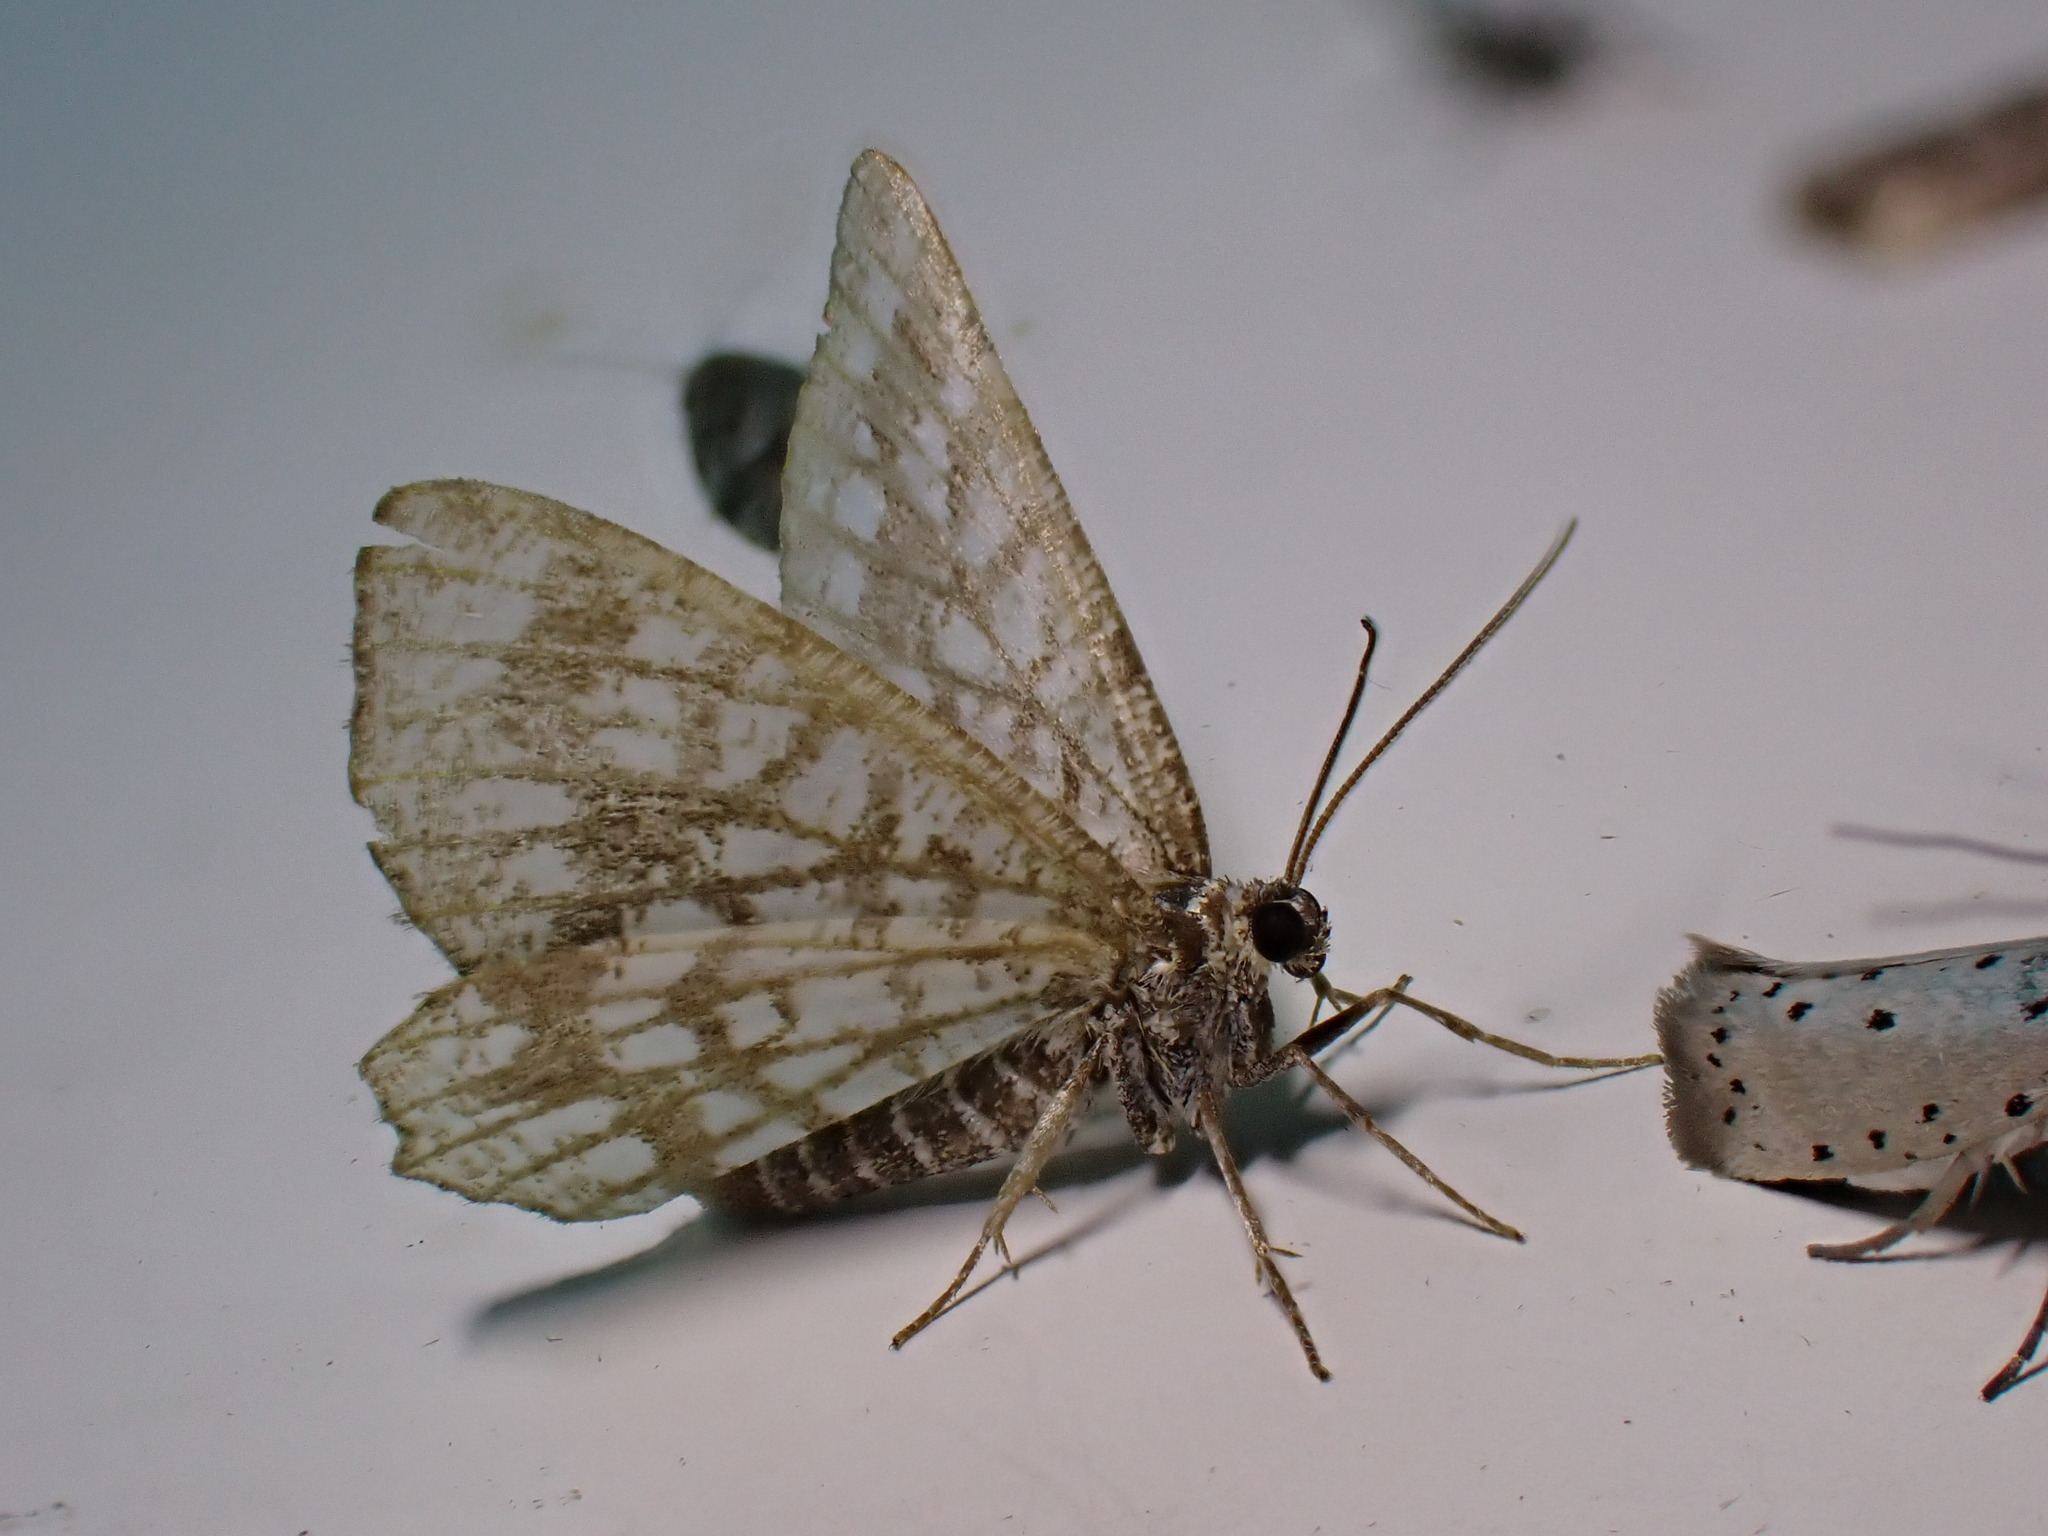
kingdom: Animalia
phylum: Arthropoda
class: Insecta
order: Lepidoptera
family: Geometridae
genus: Chiasmia
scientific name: Chiasmia clathrata
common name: Latticed heath
